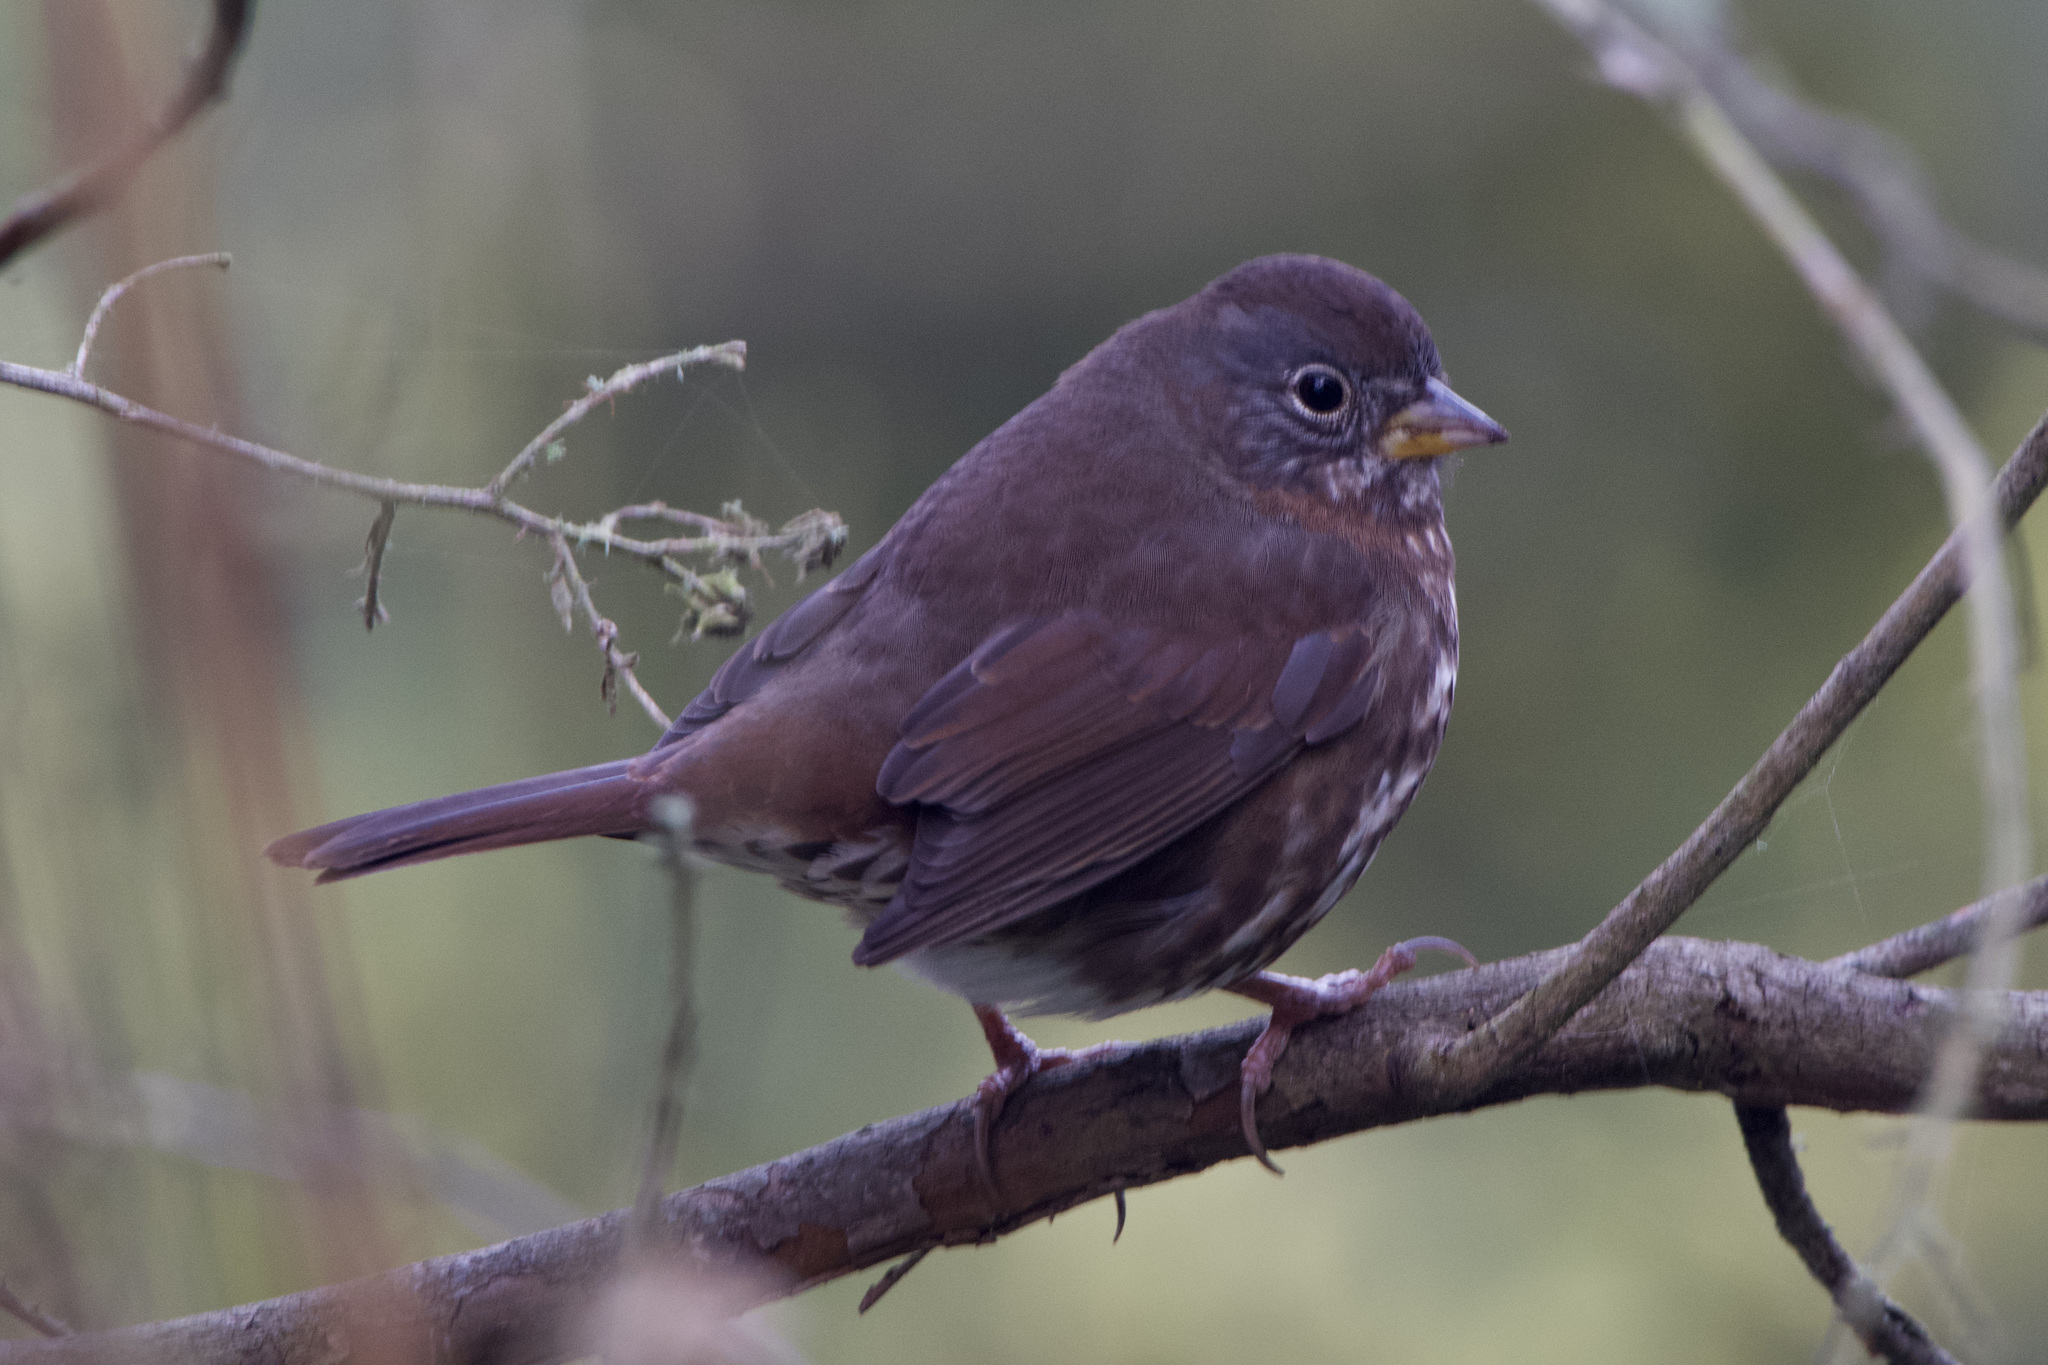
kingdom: Animalia
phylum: Chordata
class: Aves
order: Passeriformes
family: Passerellidae
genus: Passerella
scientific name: Passerella iliaca
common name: Fox sparrow
